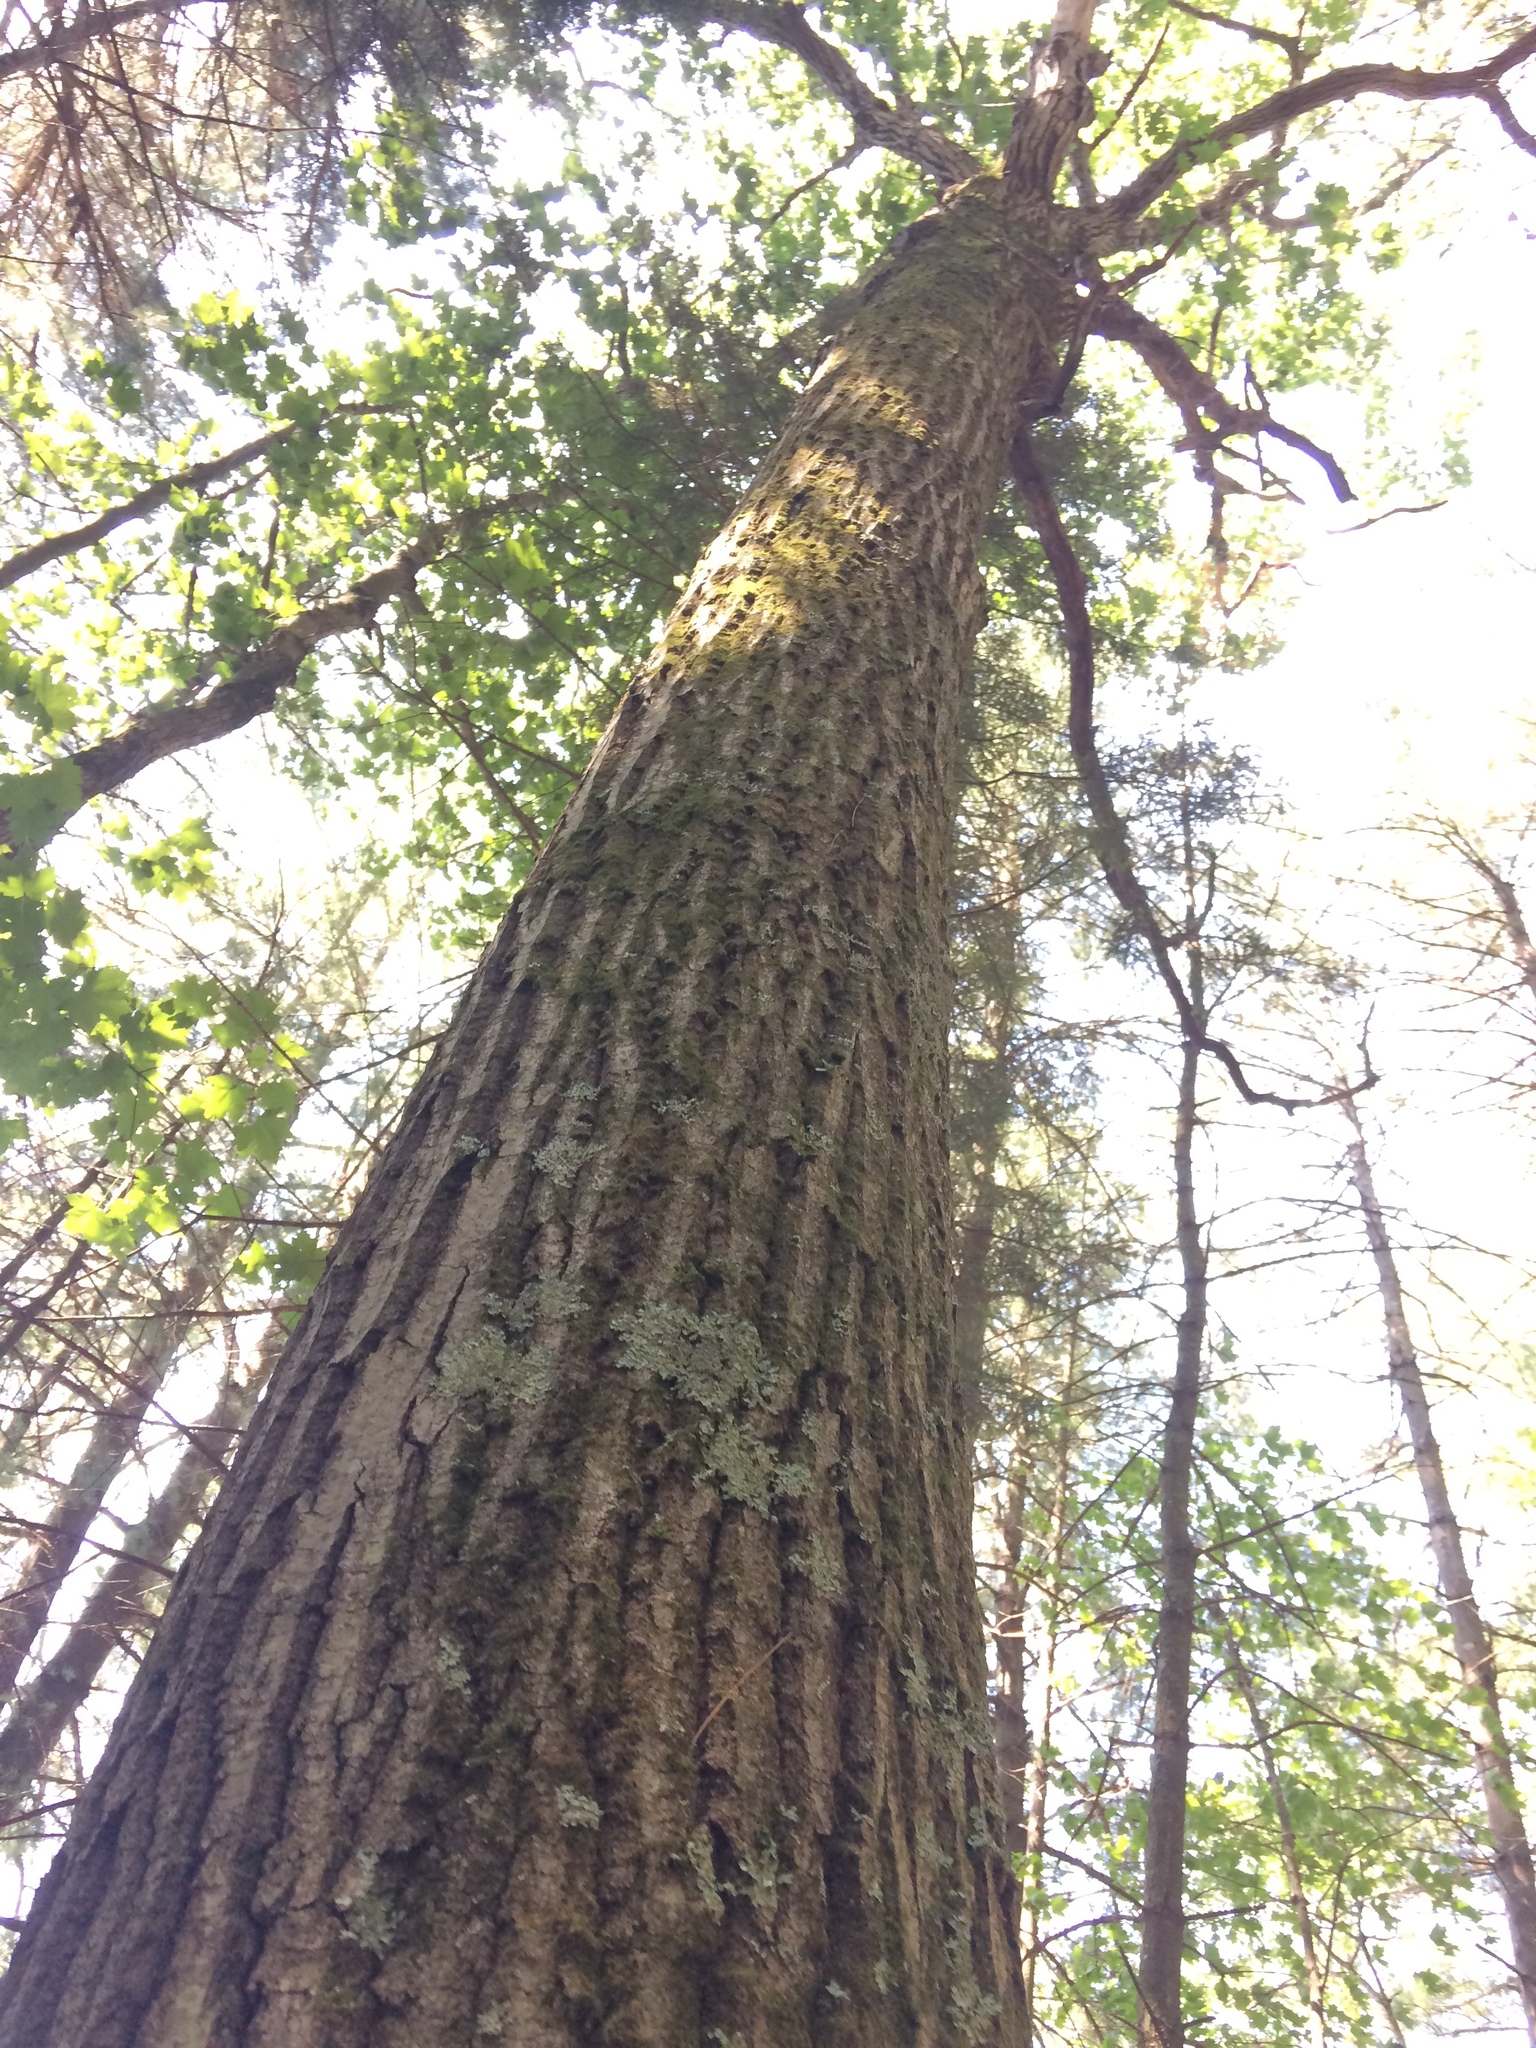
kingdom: Plantae
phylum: Tracheophyta
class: Magnoliopsida
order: Fagales
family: Fagaceae
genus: Quercus
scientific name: Quercus rubra
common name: Red oak
